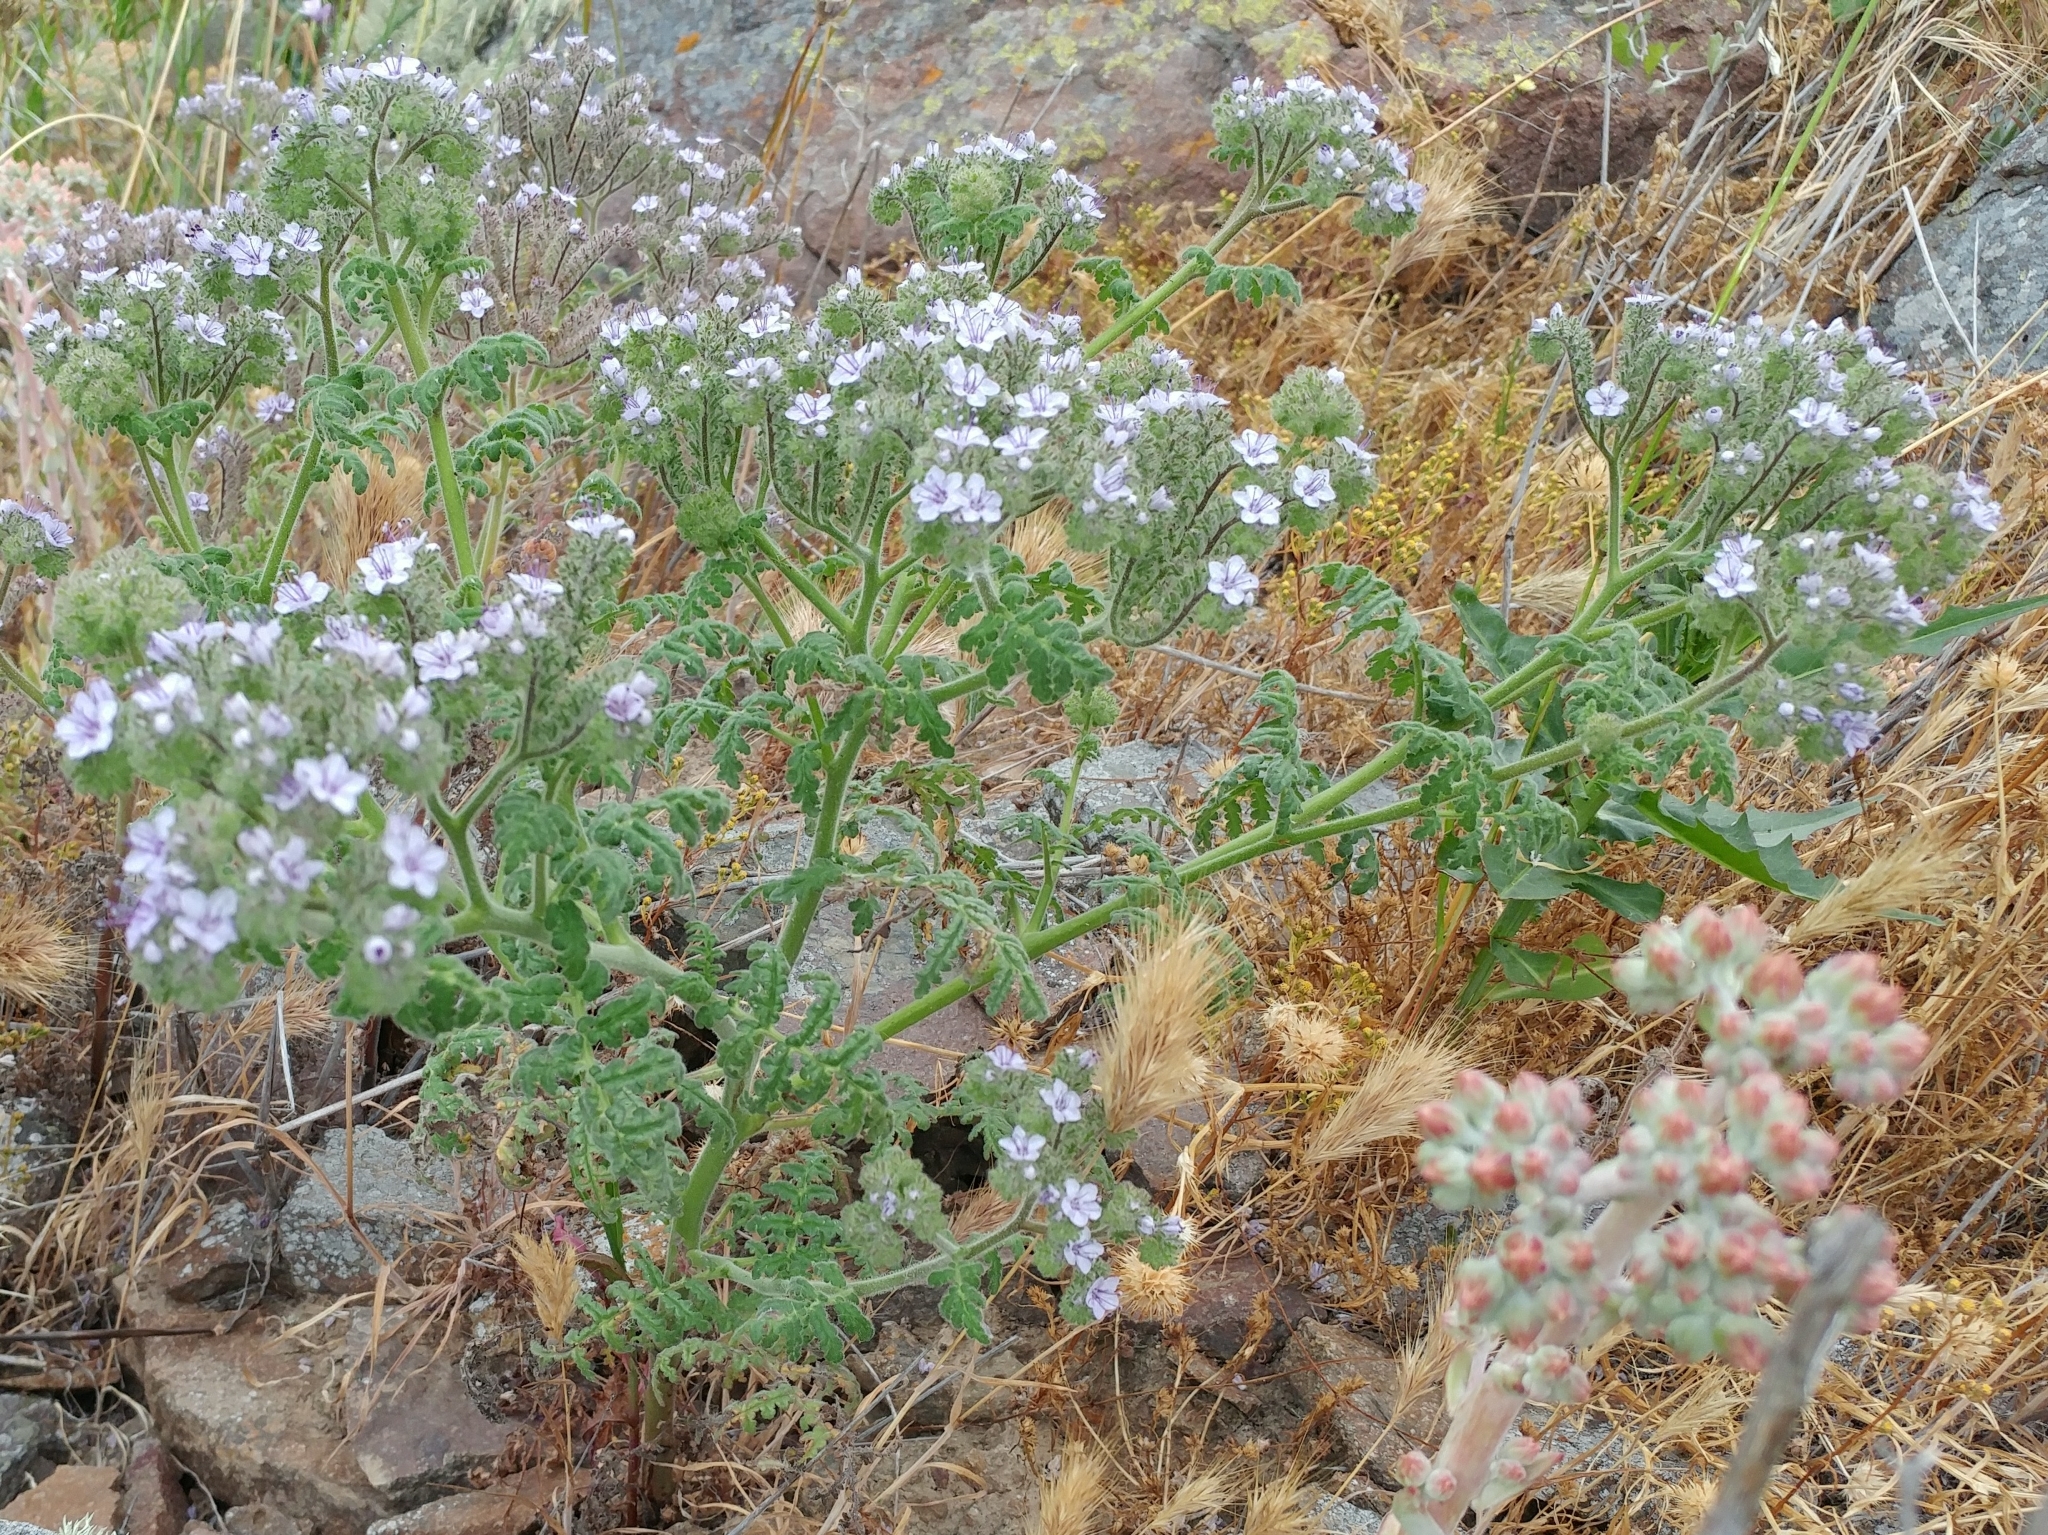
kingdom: Plantae
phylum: Tracheophyta
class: Magnoliopsida
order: Boraginales
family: Hydrophyllaceae
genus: Phacelia
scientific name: Phacelia floribunda
